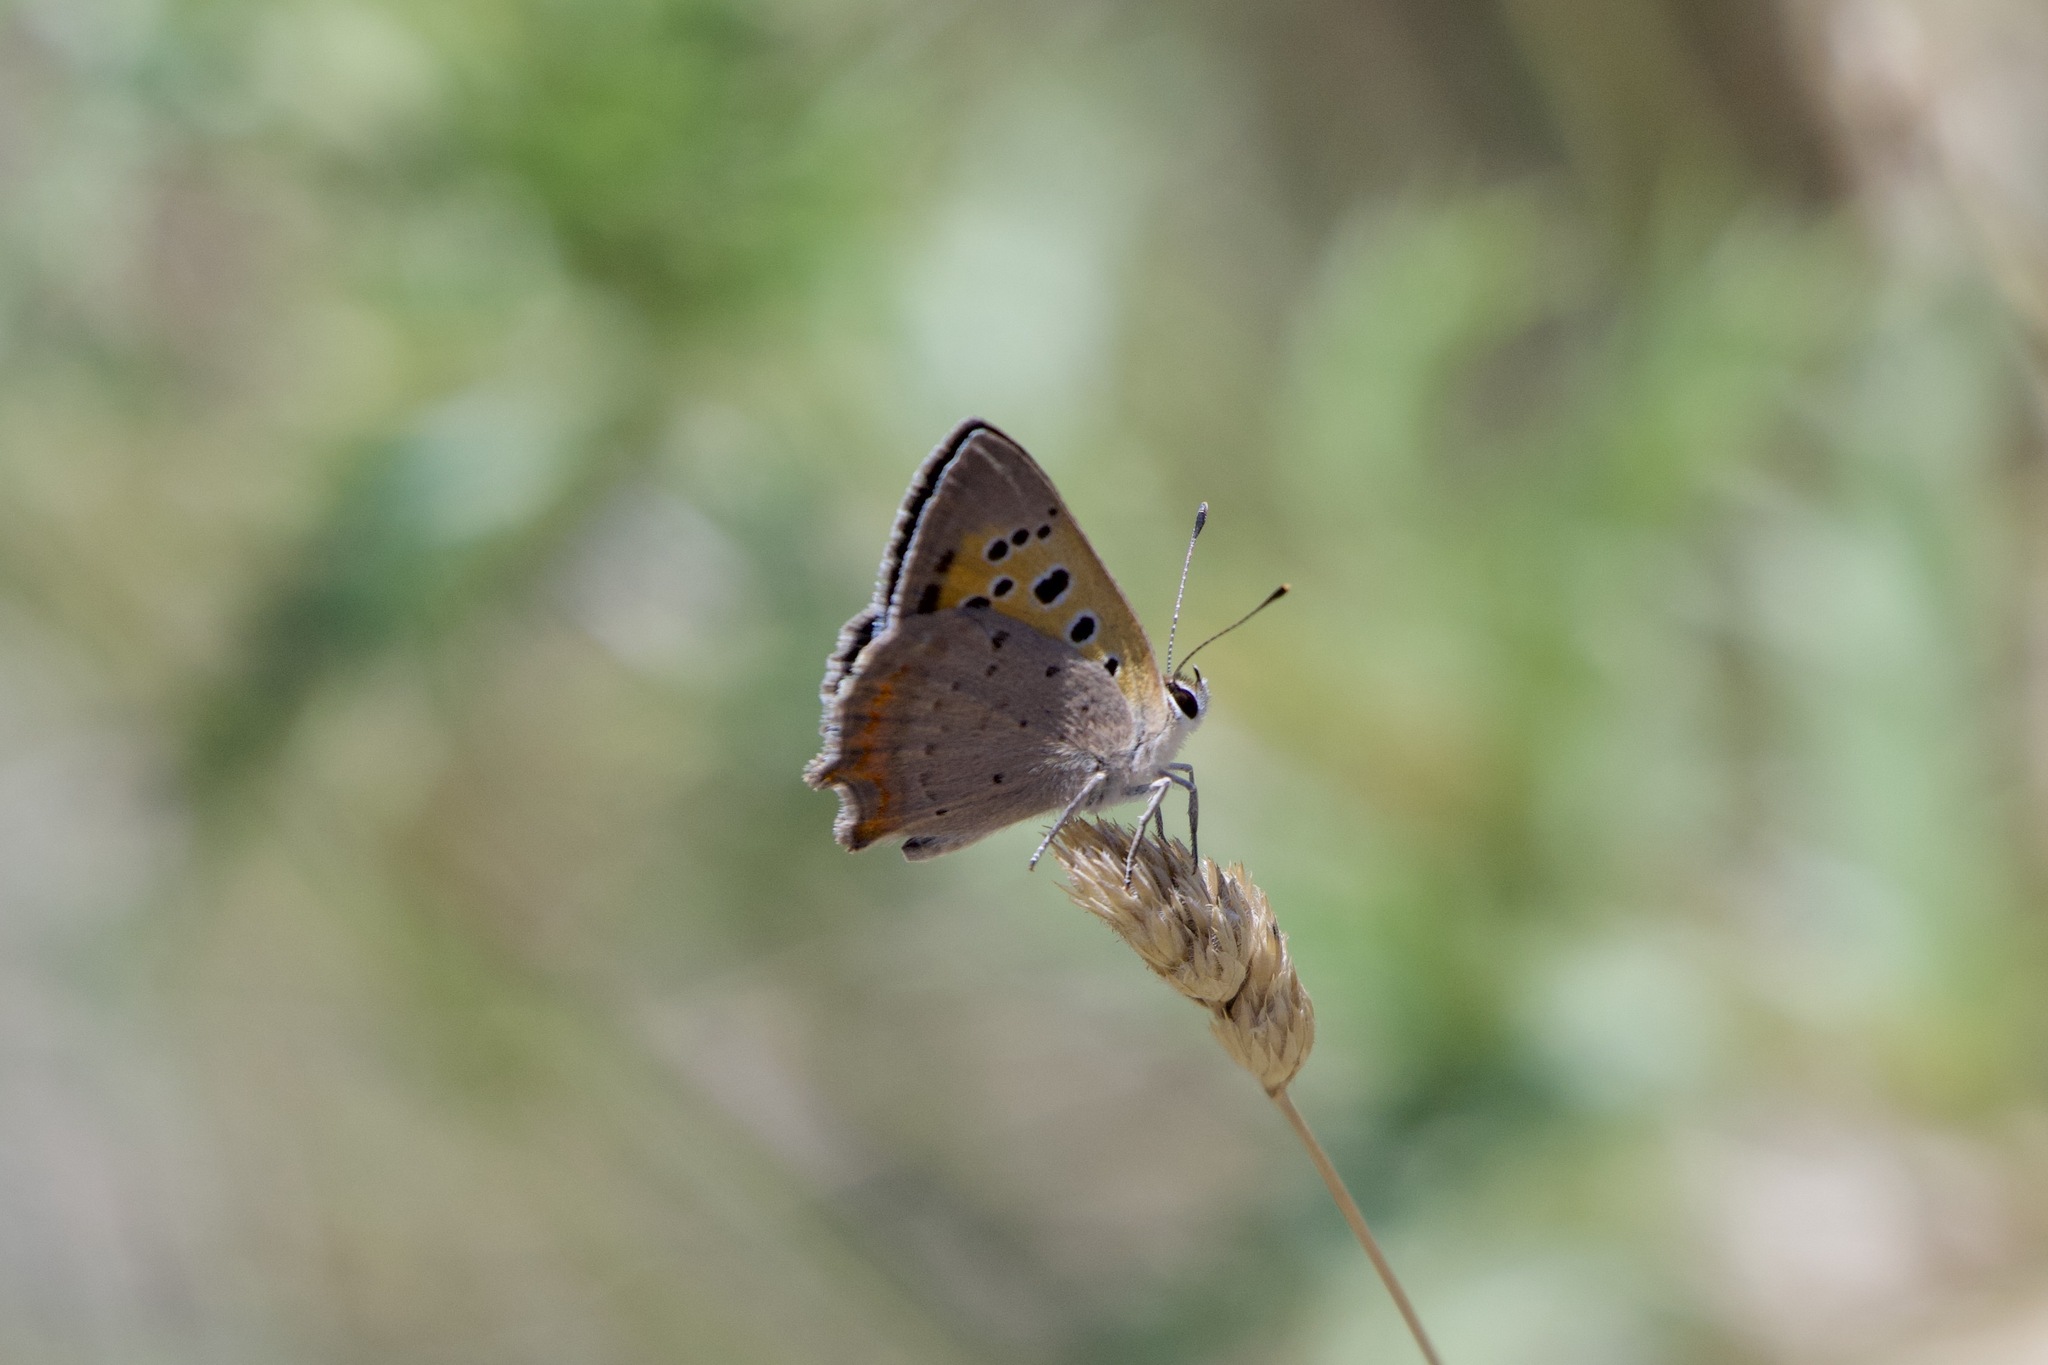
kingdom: Animalia
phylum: Arthropoda
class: Insecta
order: Lepidoptera
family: Lycaenidae
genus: Lycaena
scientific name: Lycaena phlaeas
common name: Small copper
